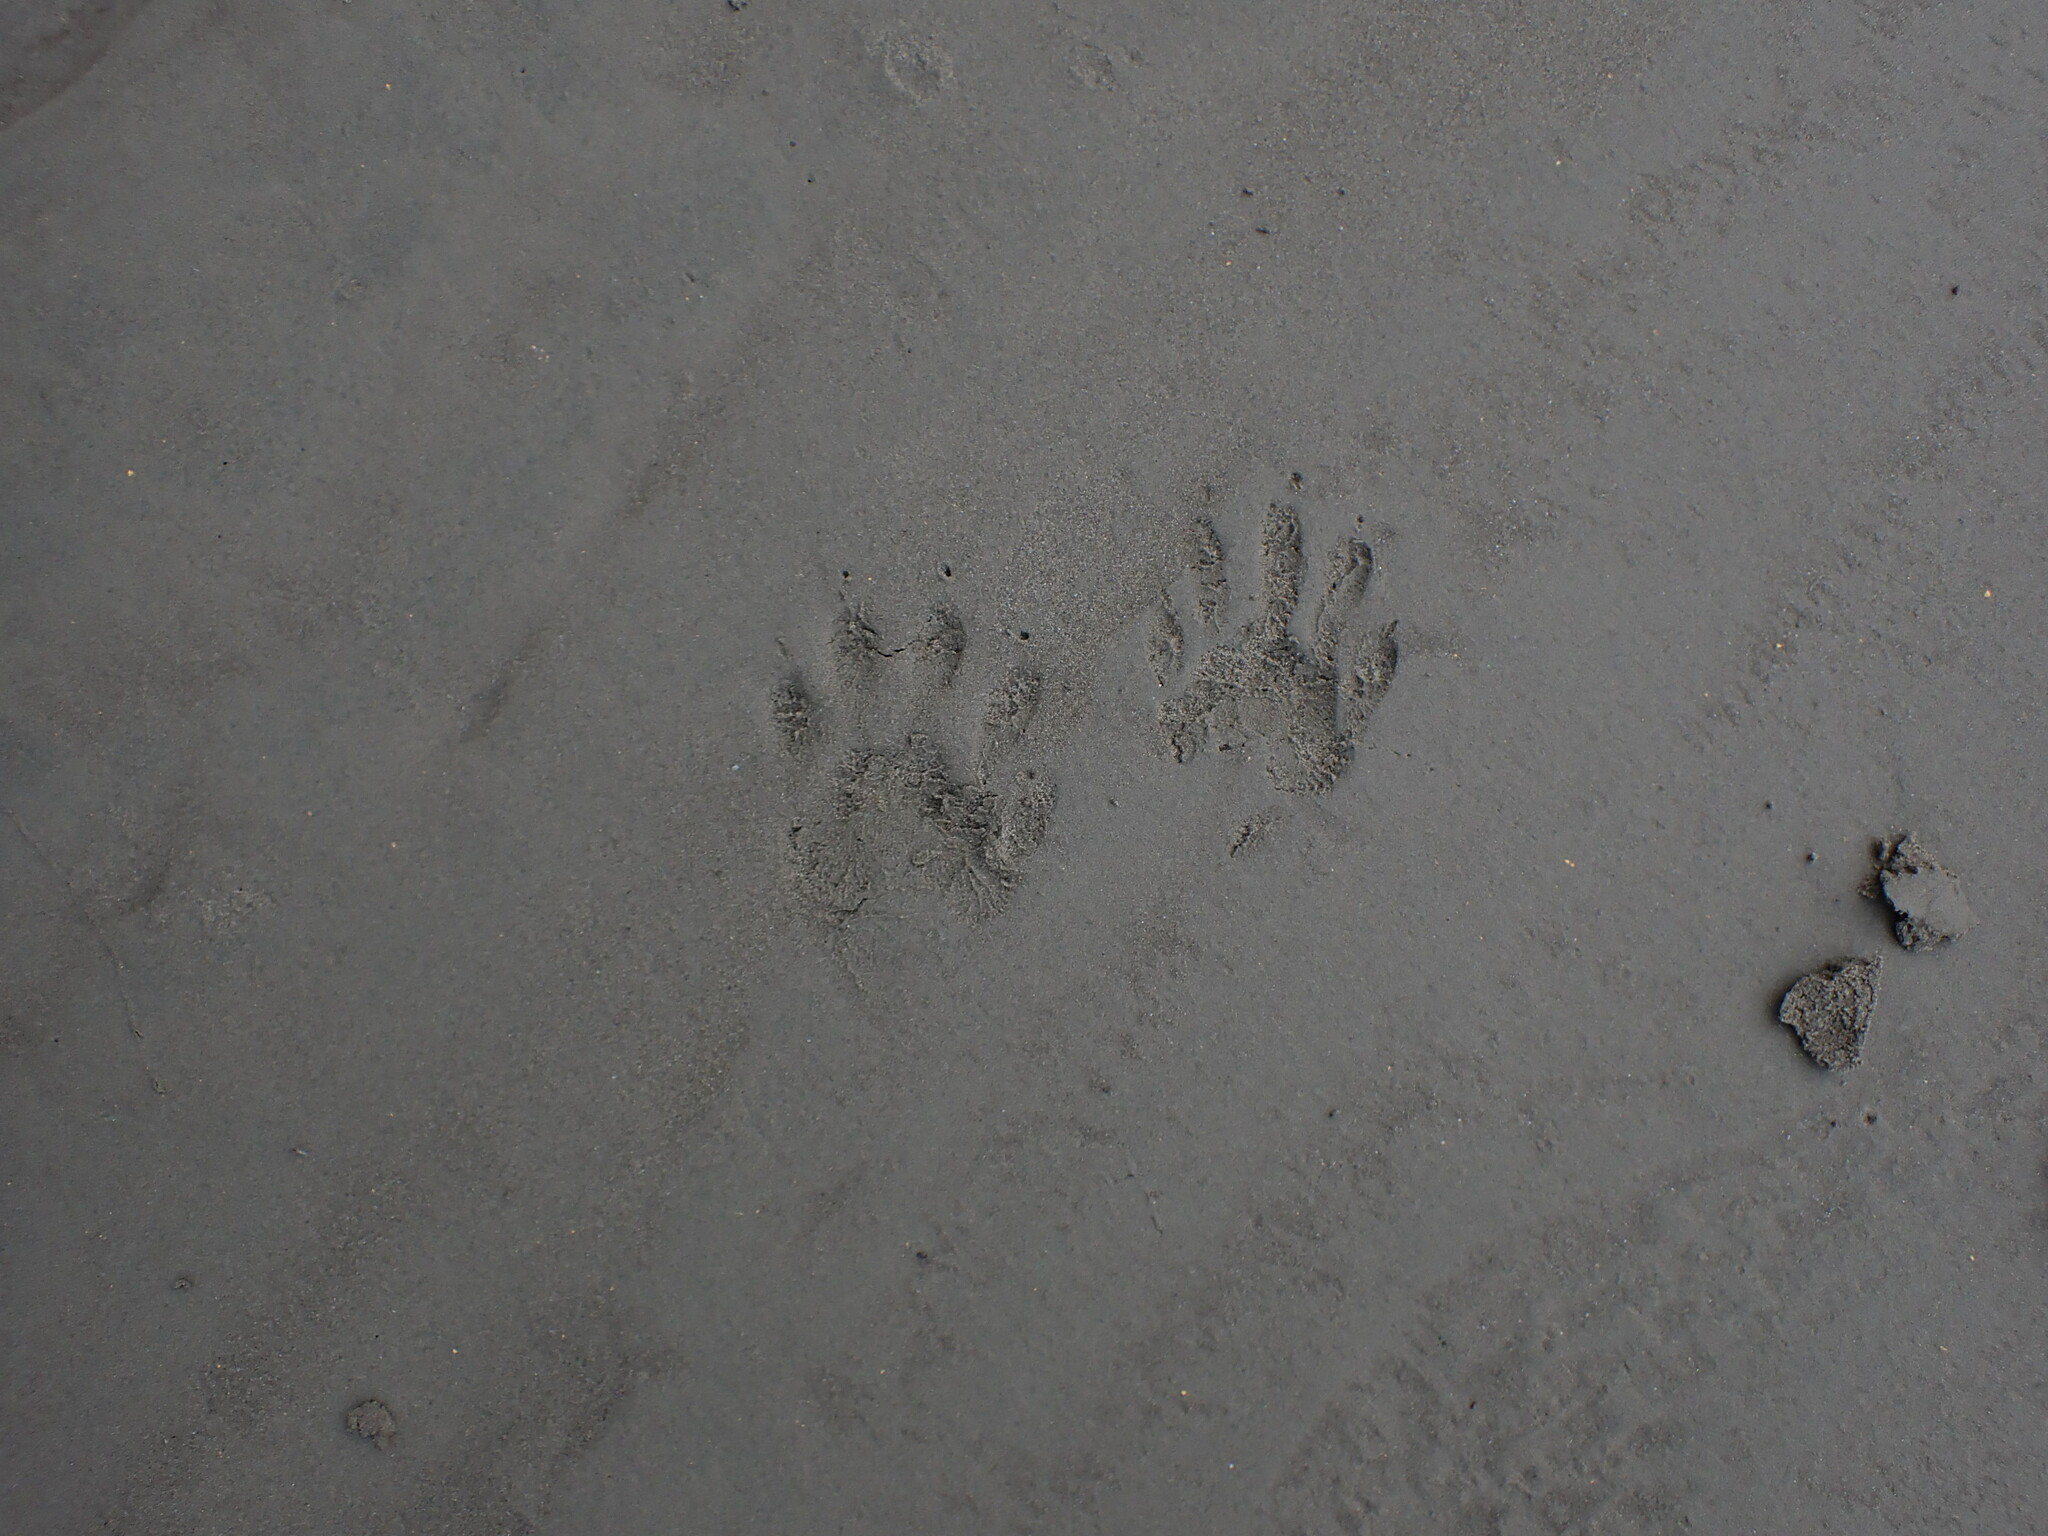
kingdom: Animalia
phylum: Chordata
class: Mammalia
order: Carnivora
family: Procyonidae
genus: Procyon
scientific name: Procyon lotor
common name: Raccoon
